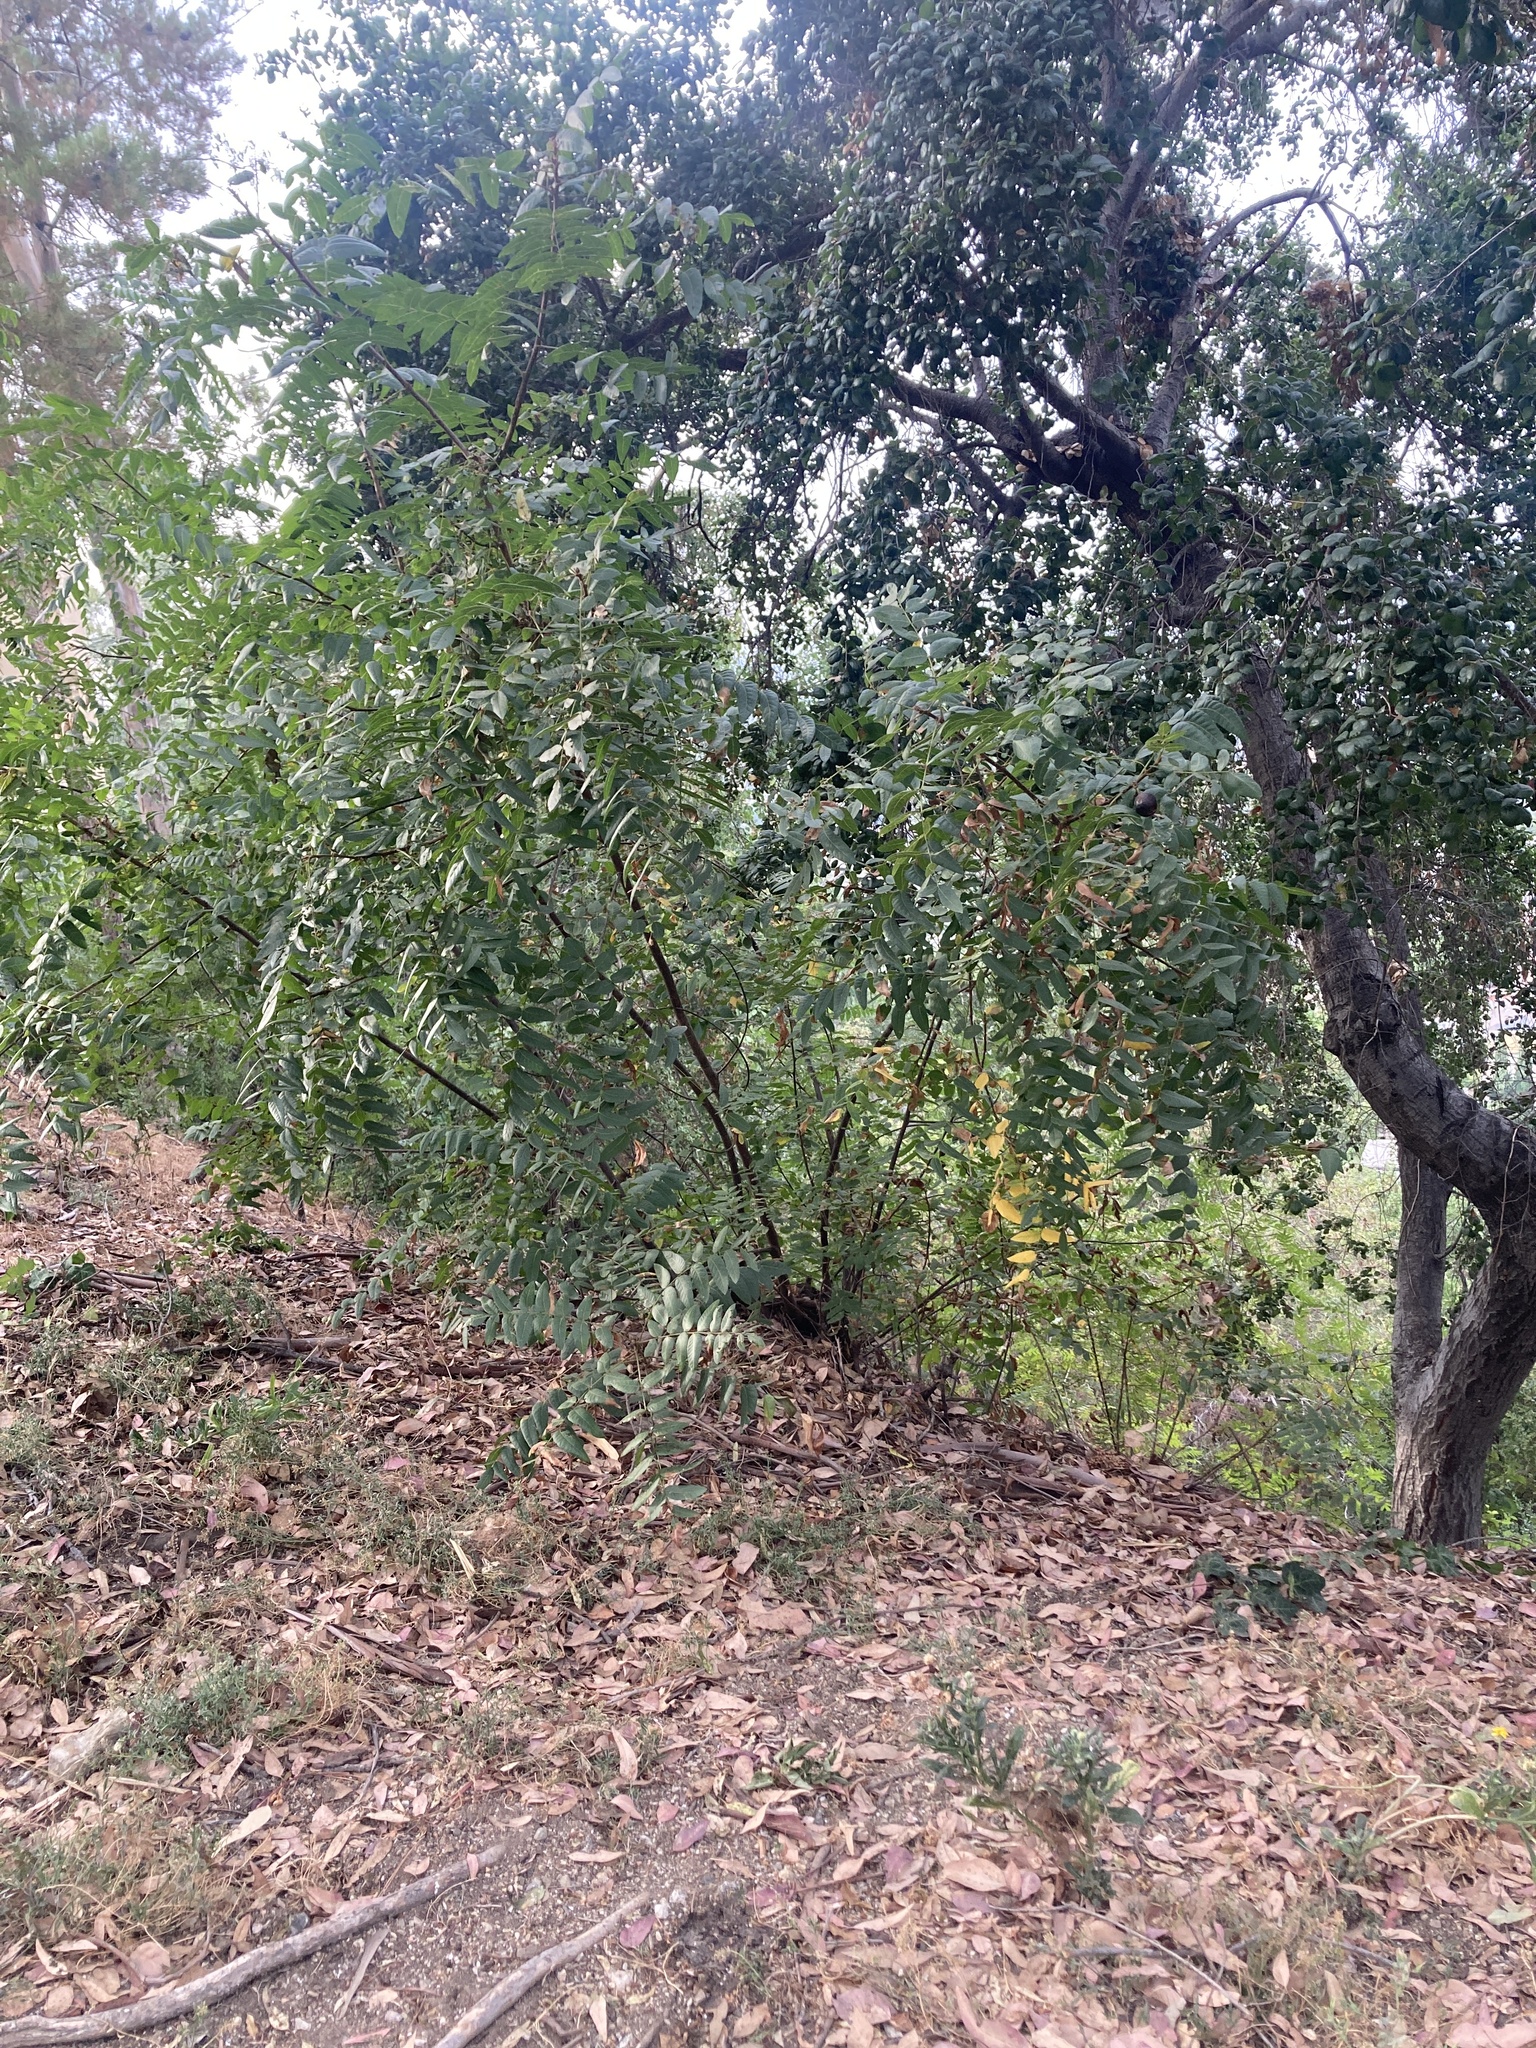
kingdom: Plantae
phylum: Tracheophyta
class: Magnoliopsida
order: Fagales
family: Juglandaceae
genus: Juglans
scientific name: Juglans californica
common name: Southern california black walnut
